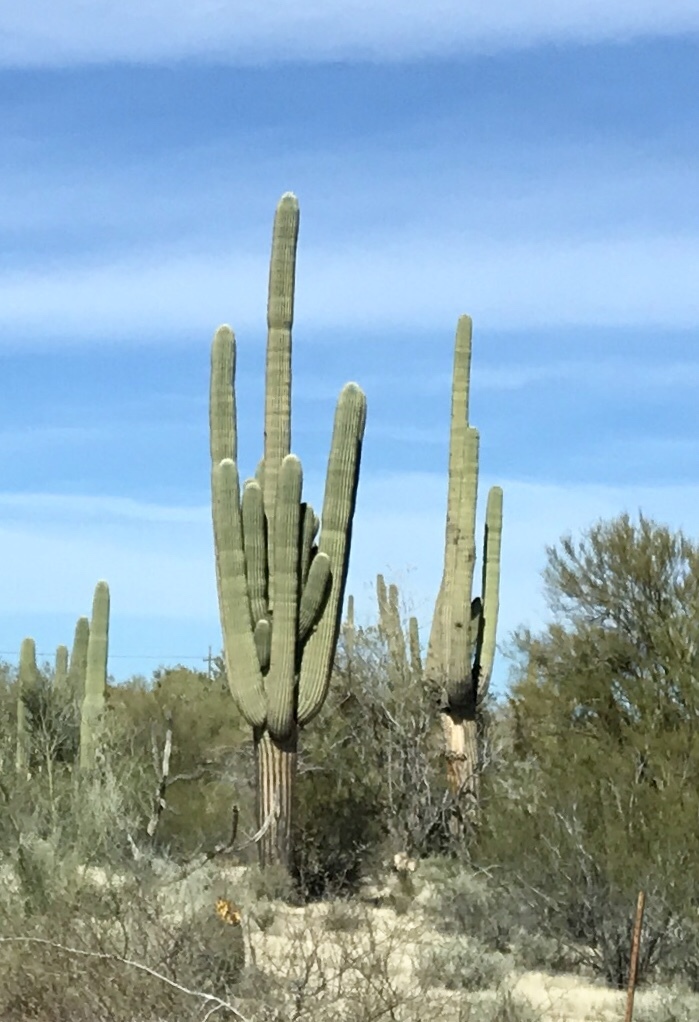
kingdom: Plantae
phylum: Tracheophyta
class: Magnoliopsida
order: Caryophyllales
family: Cactaceae
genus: Carnegiea
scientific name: Carnegiea gigantea
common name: Saguaro
